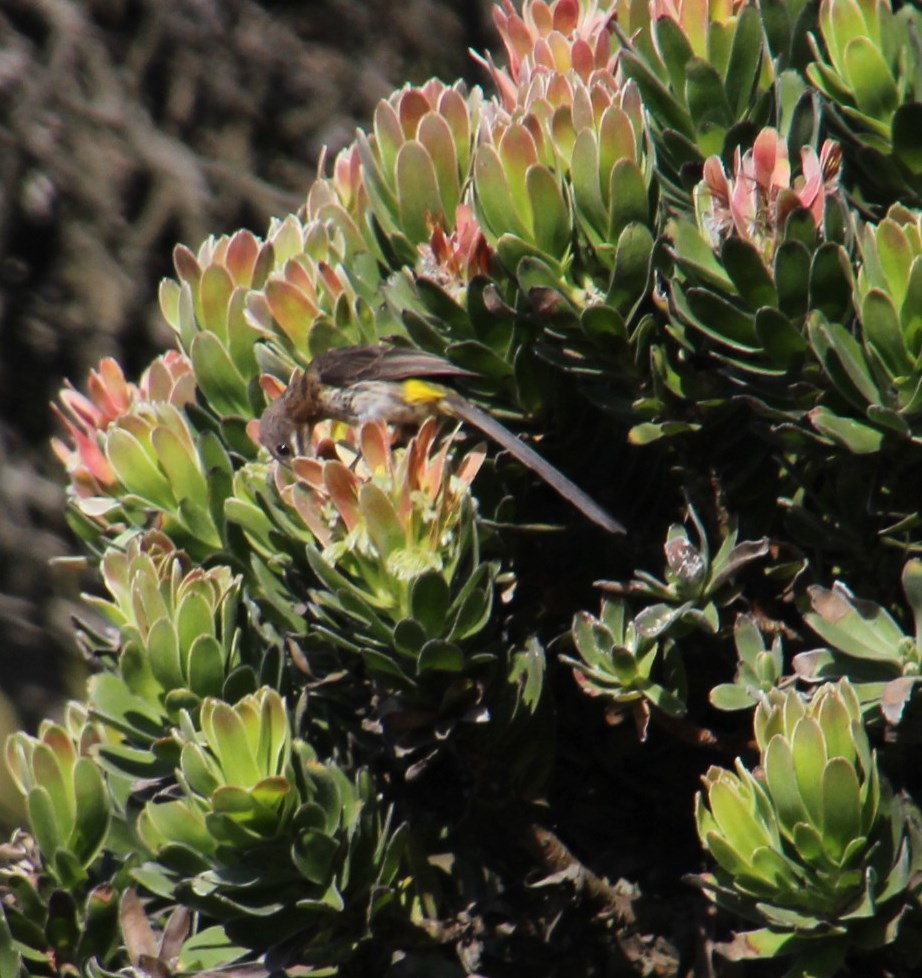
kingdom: Animalia
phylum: Chordata
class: Aves
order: Passeriformes
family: Promeropidae
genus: Promerops
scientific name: Promerops cafer
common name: Cape sugarbird
